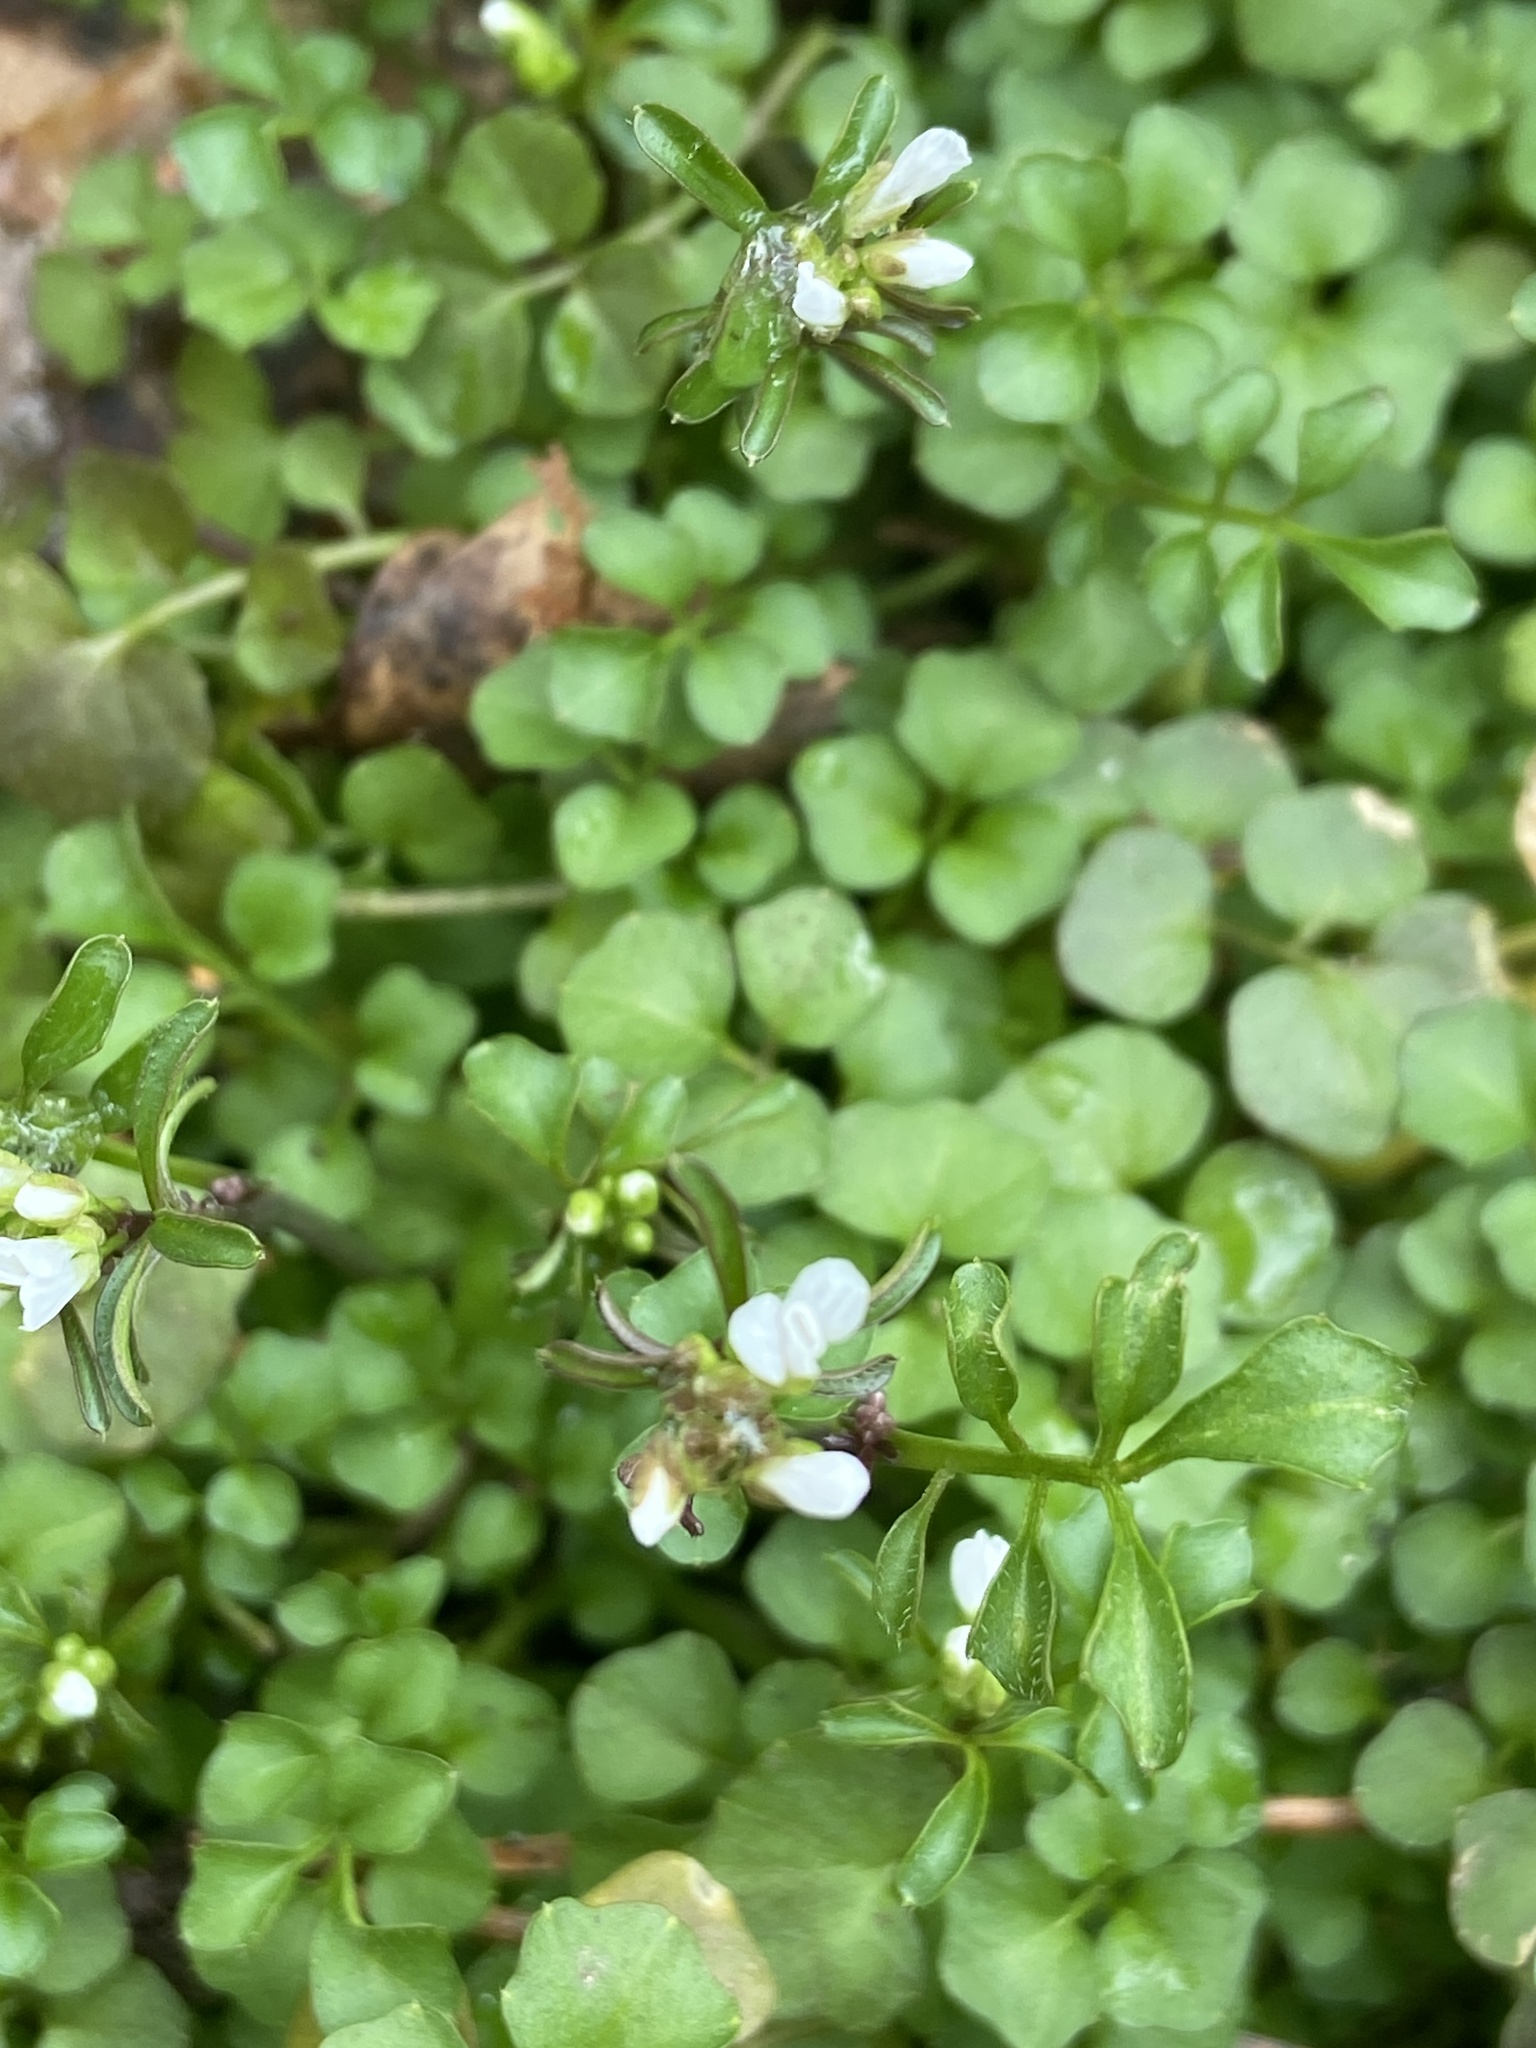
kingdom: Plantae
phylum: Tracheophyta
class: Magnoliopsida
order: Brassicales
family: Brassicaceae
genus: Cardamine
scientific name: Cardamine hirsuta
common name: Hairy bittercress
